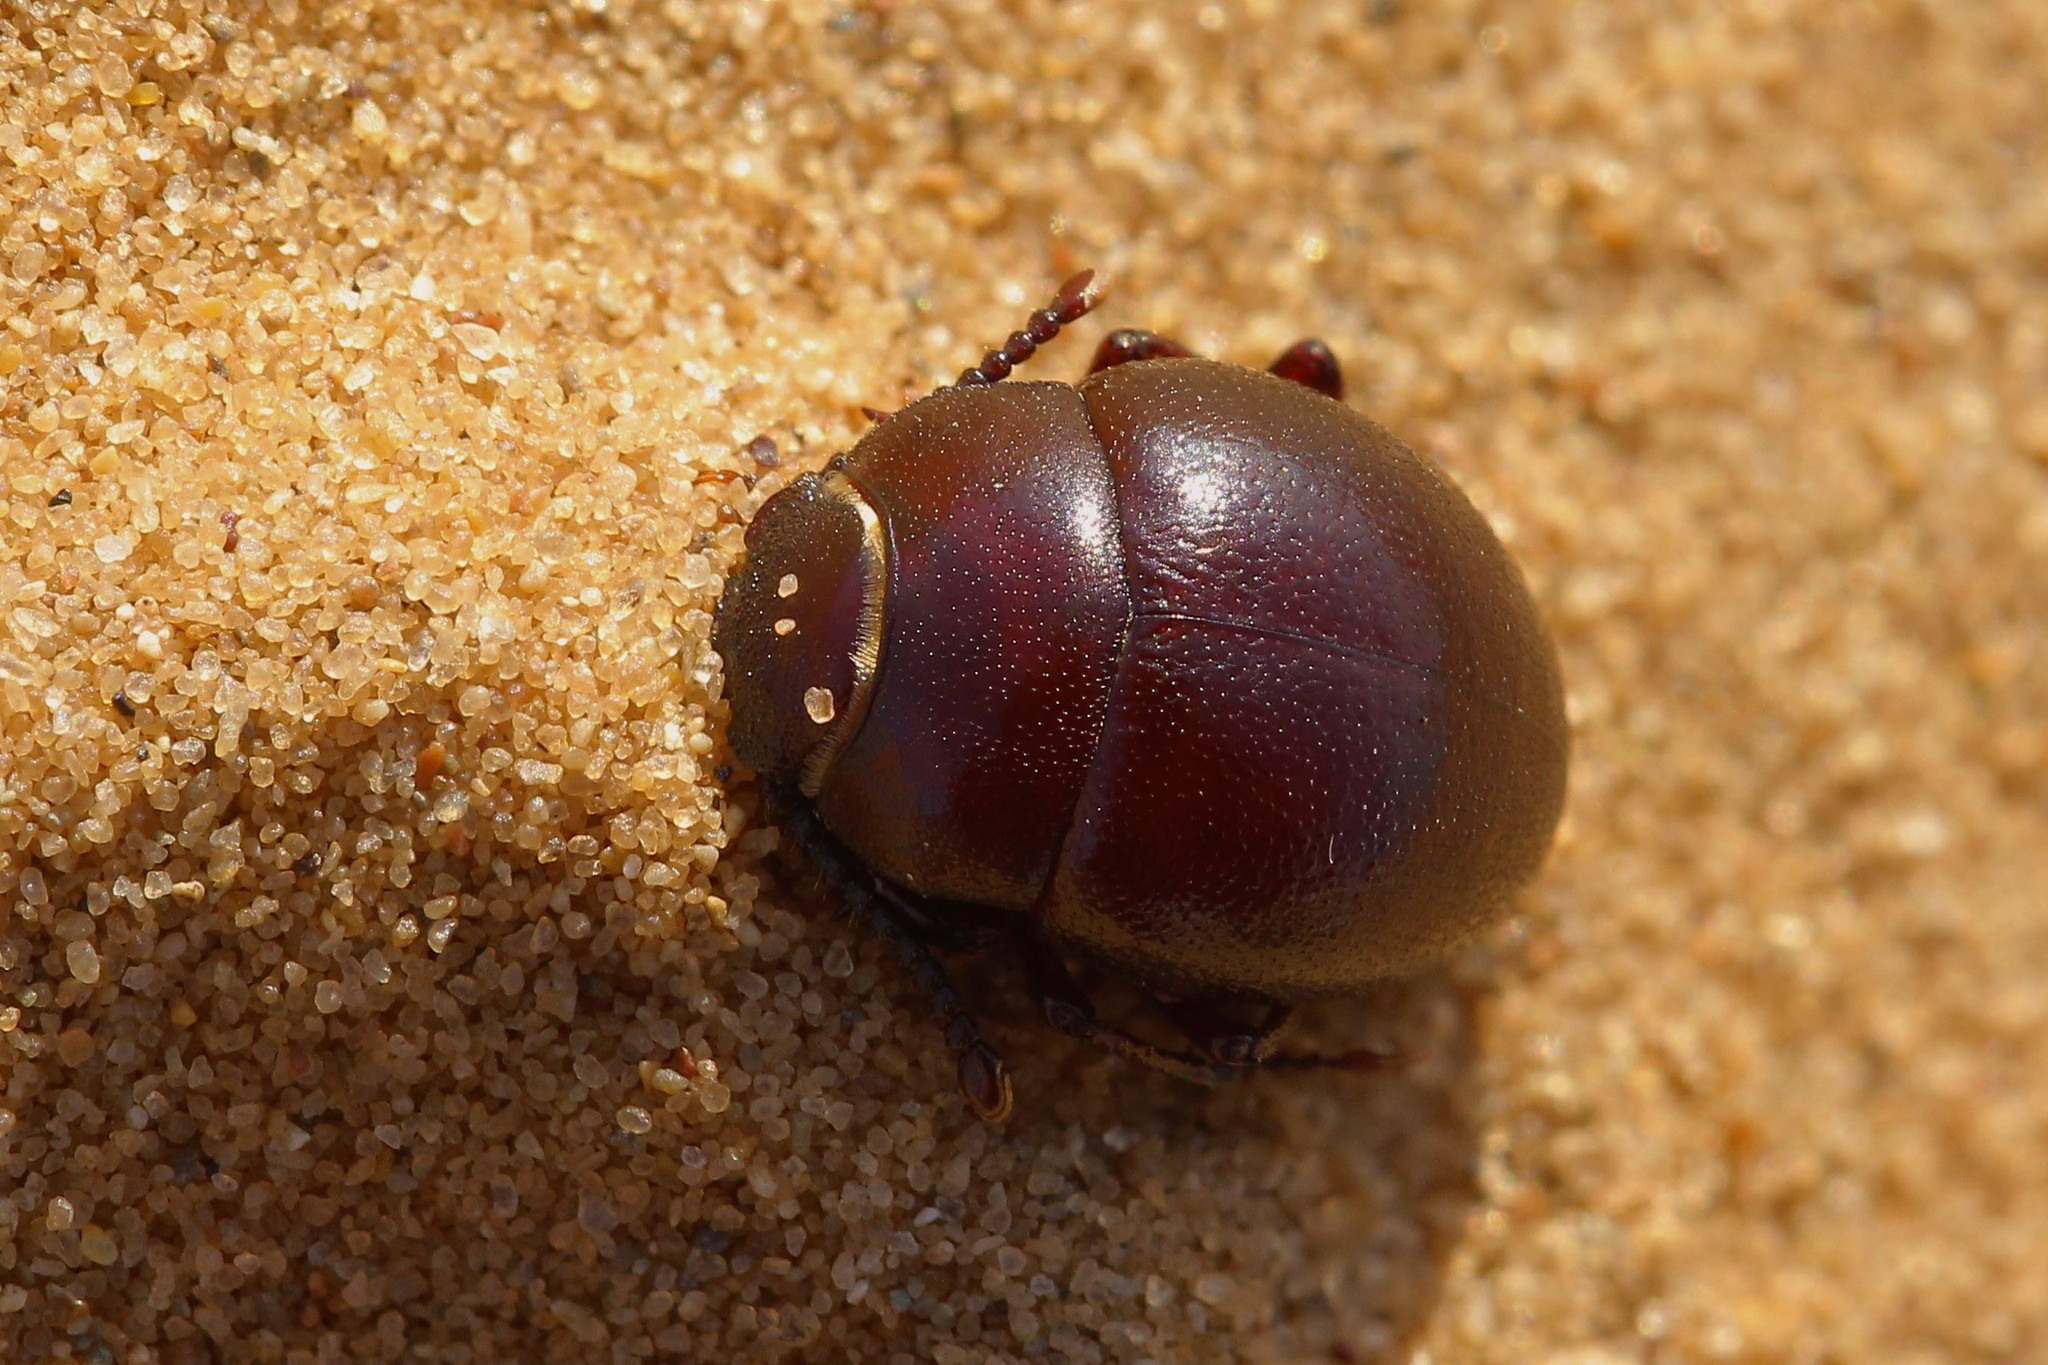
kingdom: Animalia
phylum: Arthropoda
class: Insecta
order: Coleoptera
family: Tenebrionidae
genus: Diaphanidus
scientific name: Diaphanidus
